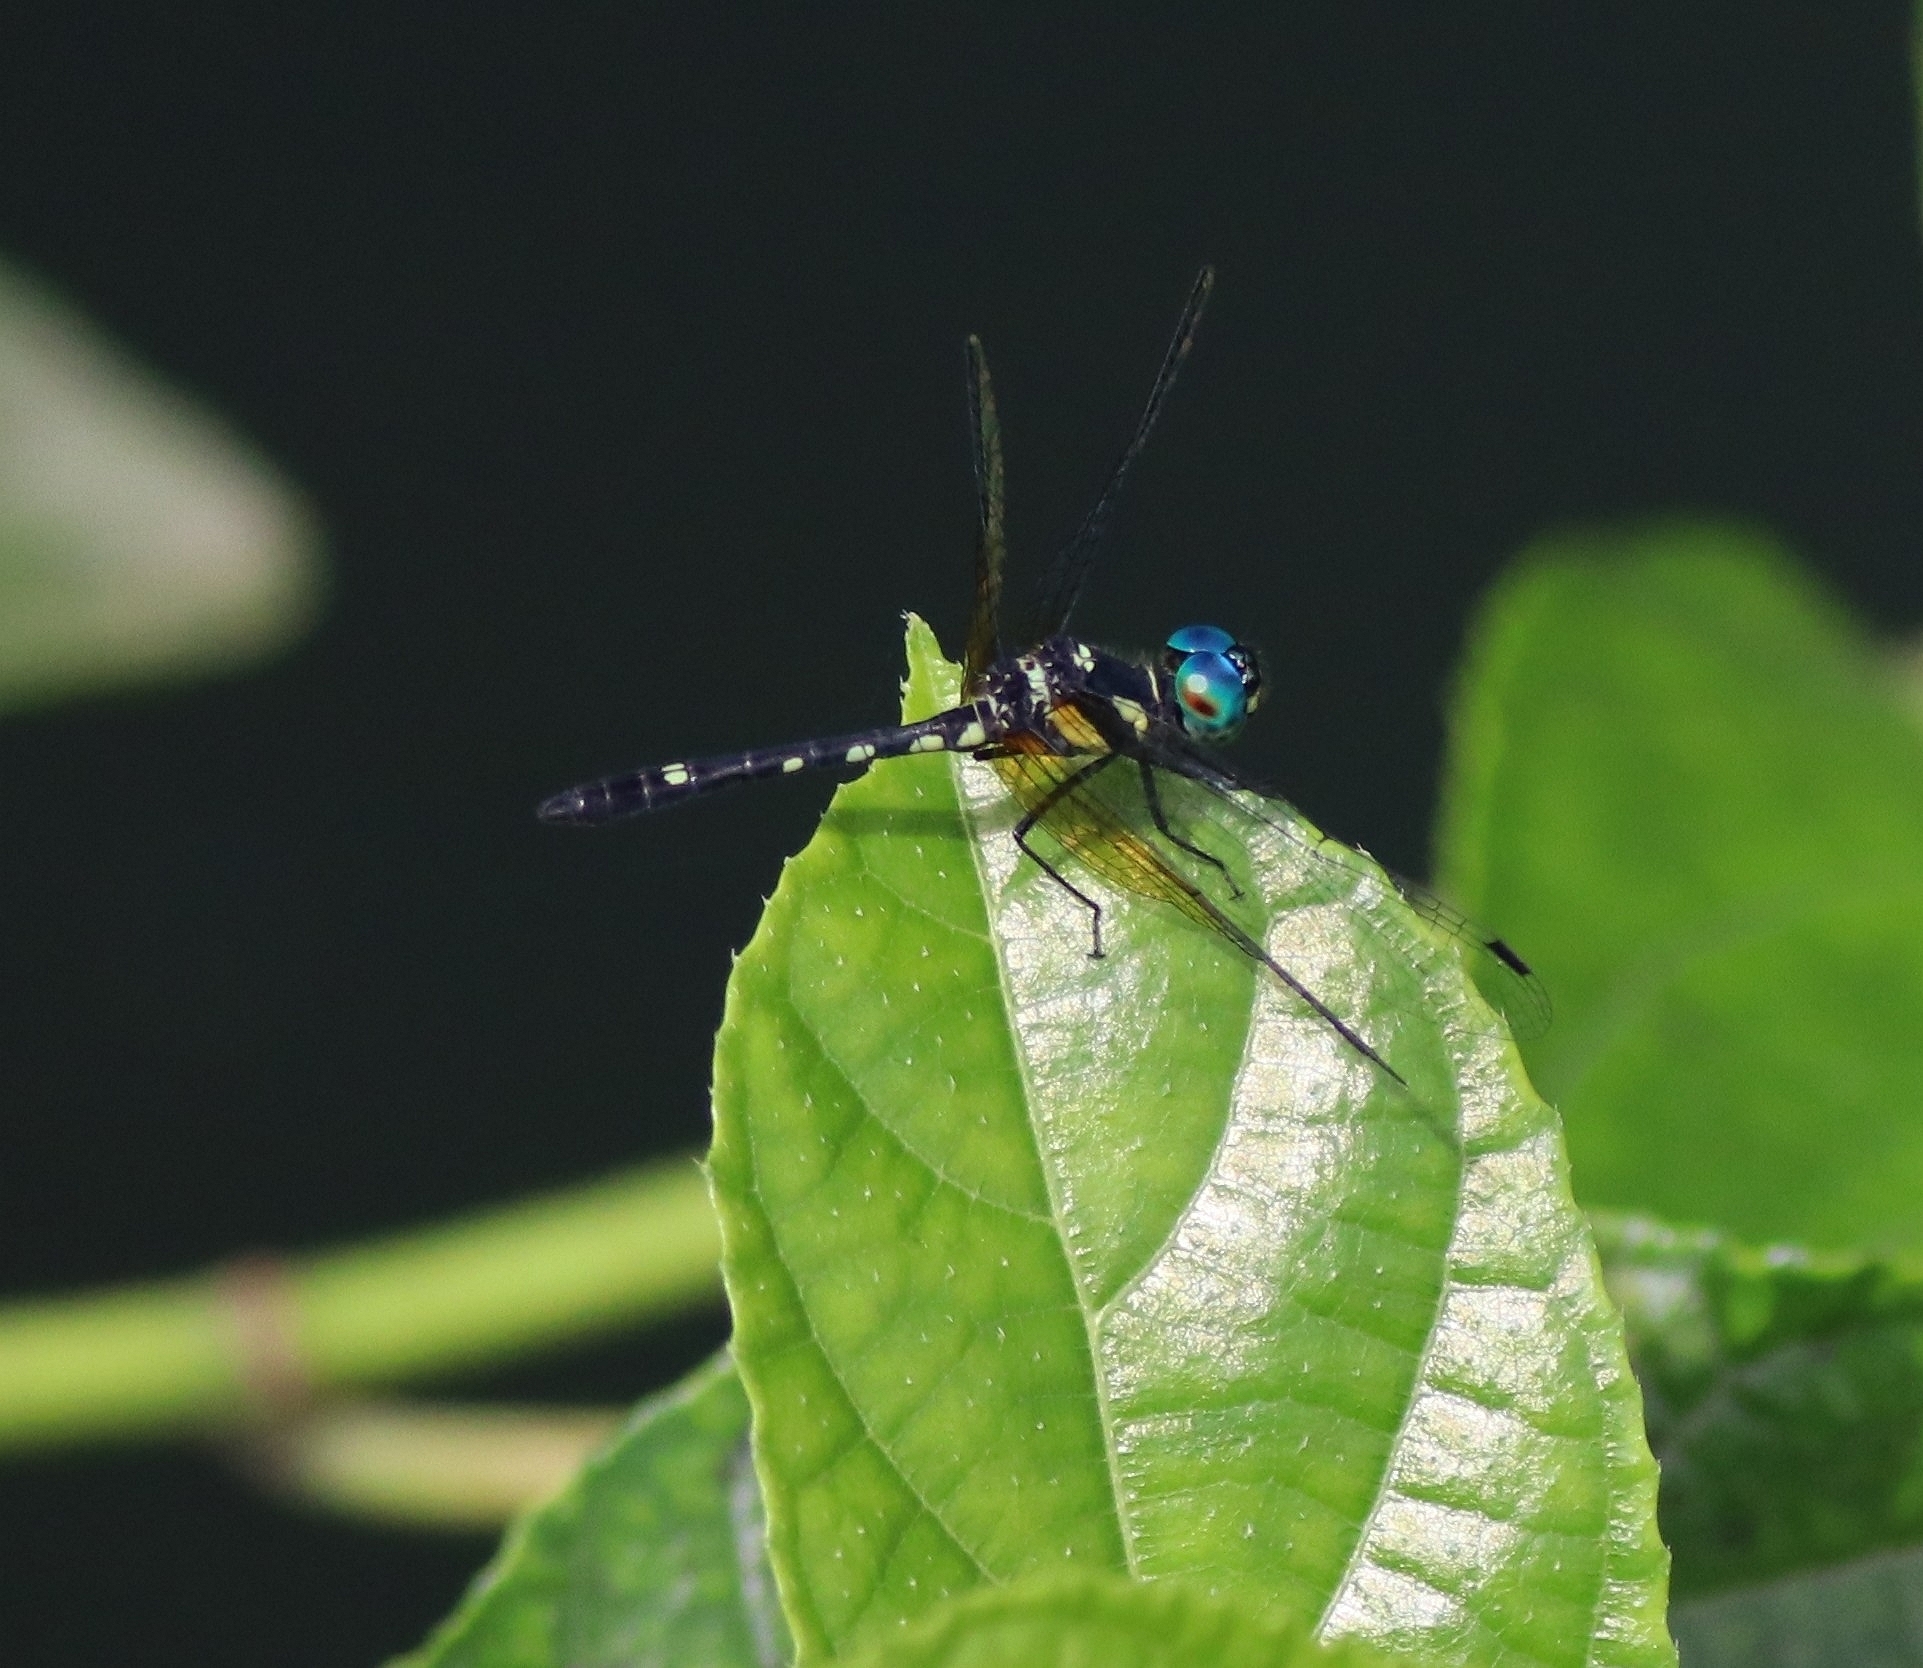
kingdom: Animalia
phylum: Arthropoda
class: Insecta
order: Odonata
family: Libellulidae
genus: Tetrathemis
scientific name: Tetrathemis platyptera
